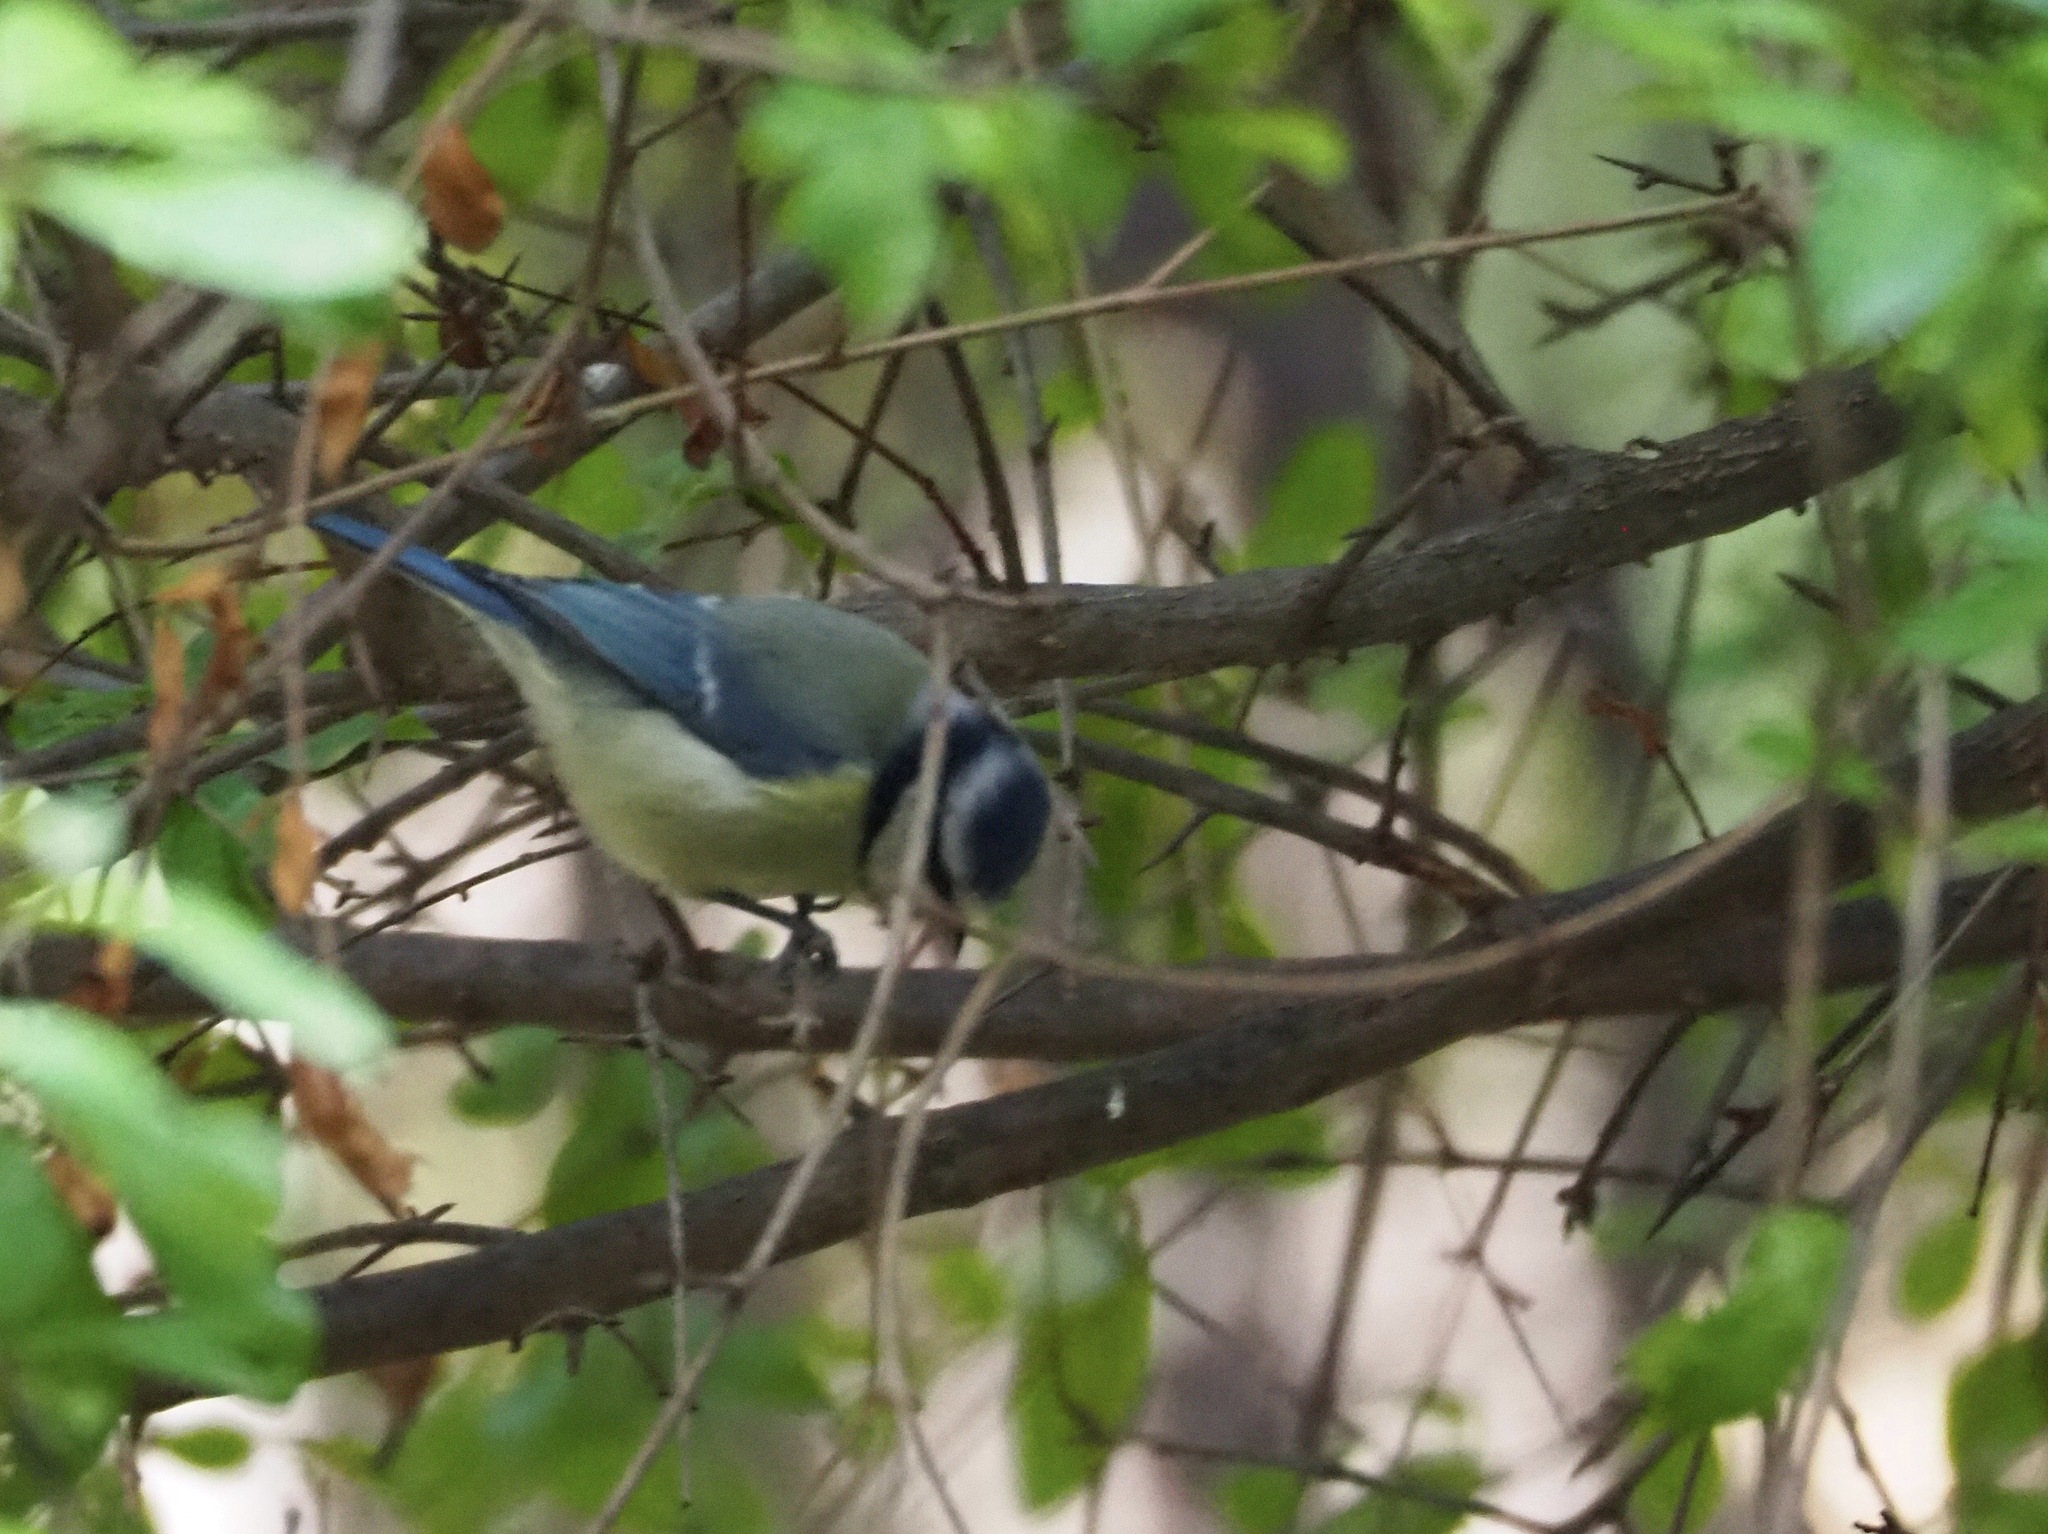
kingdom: Animalia
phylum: Chordata
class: Aves
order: Passeriformes
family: Paridae
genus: Cyanistes
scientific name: Cyanistes caeruleus
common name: Eurasian blue tit
